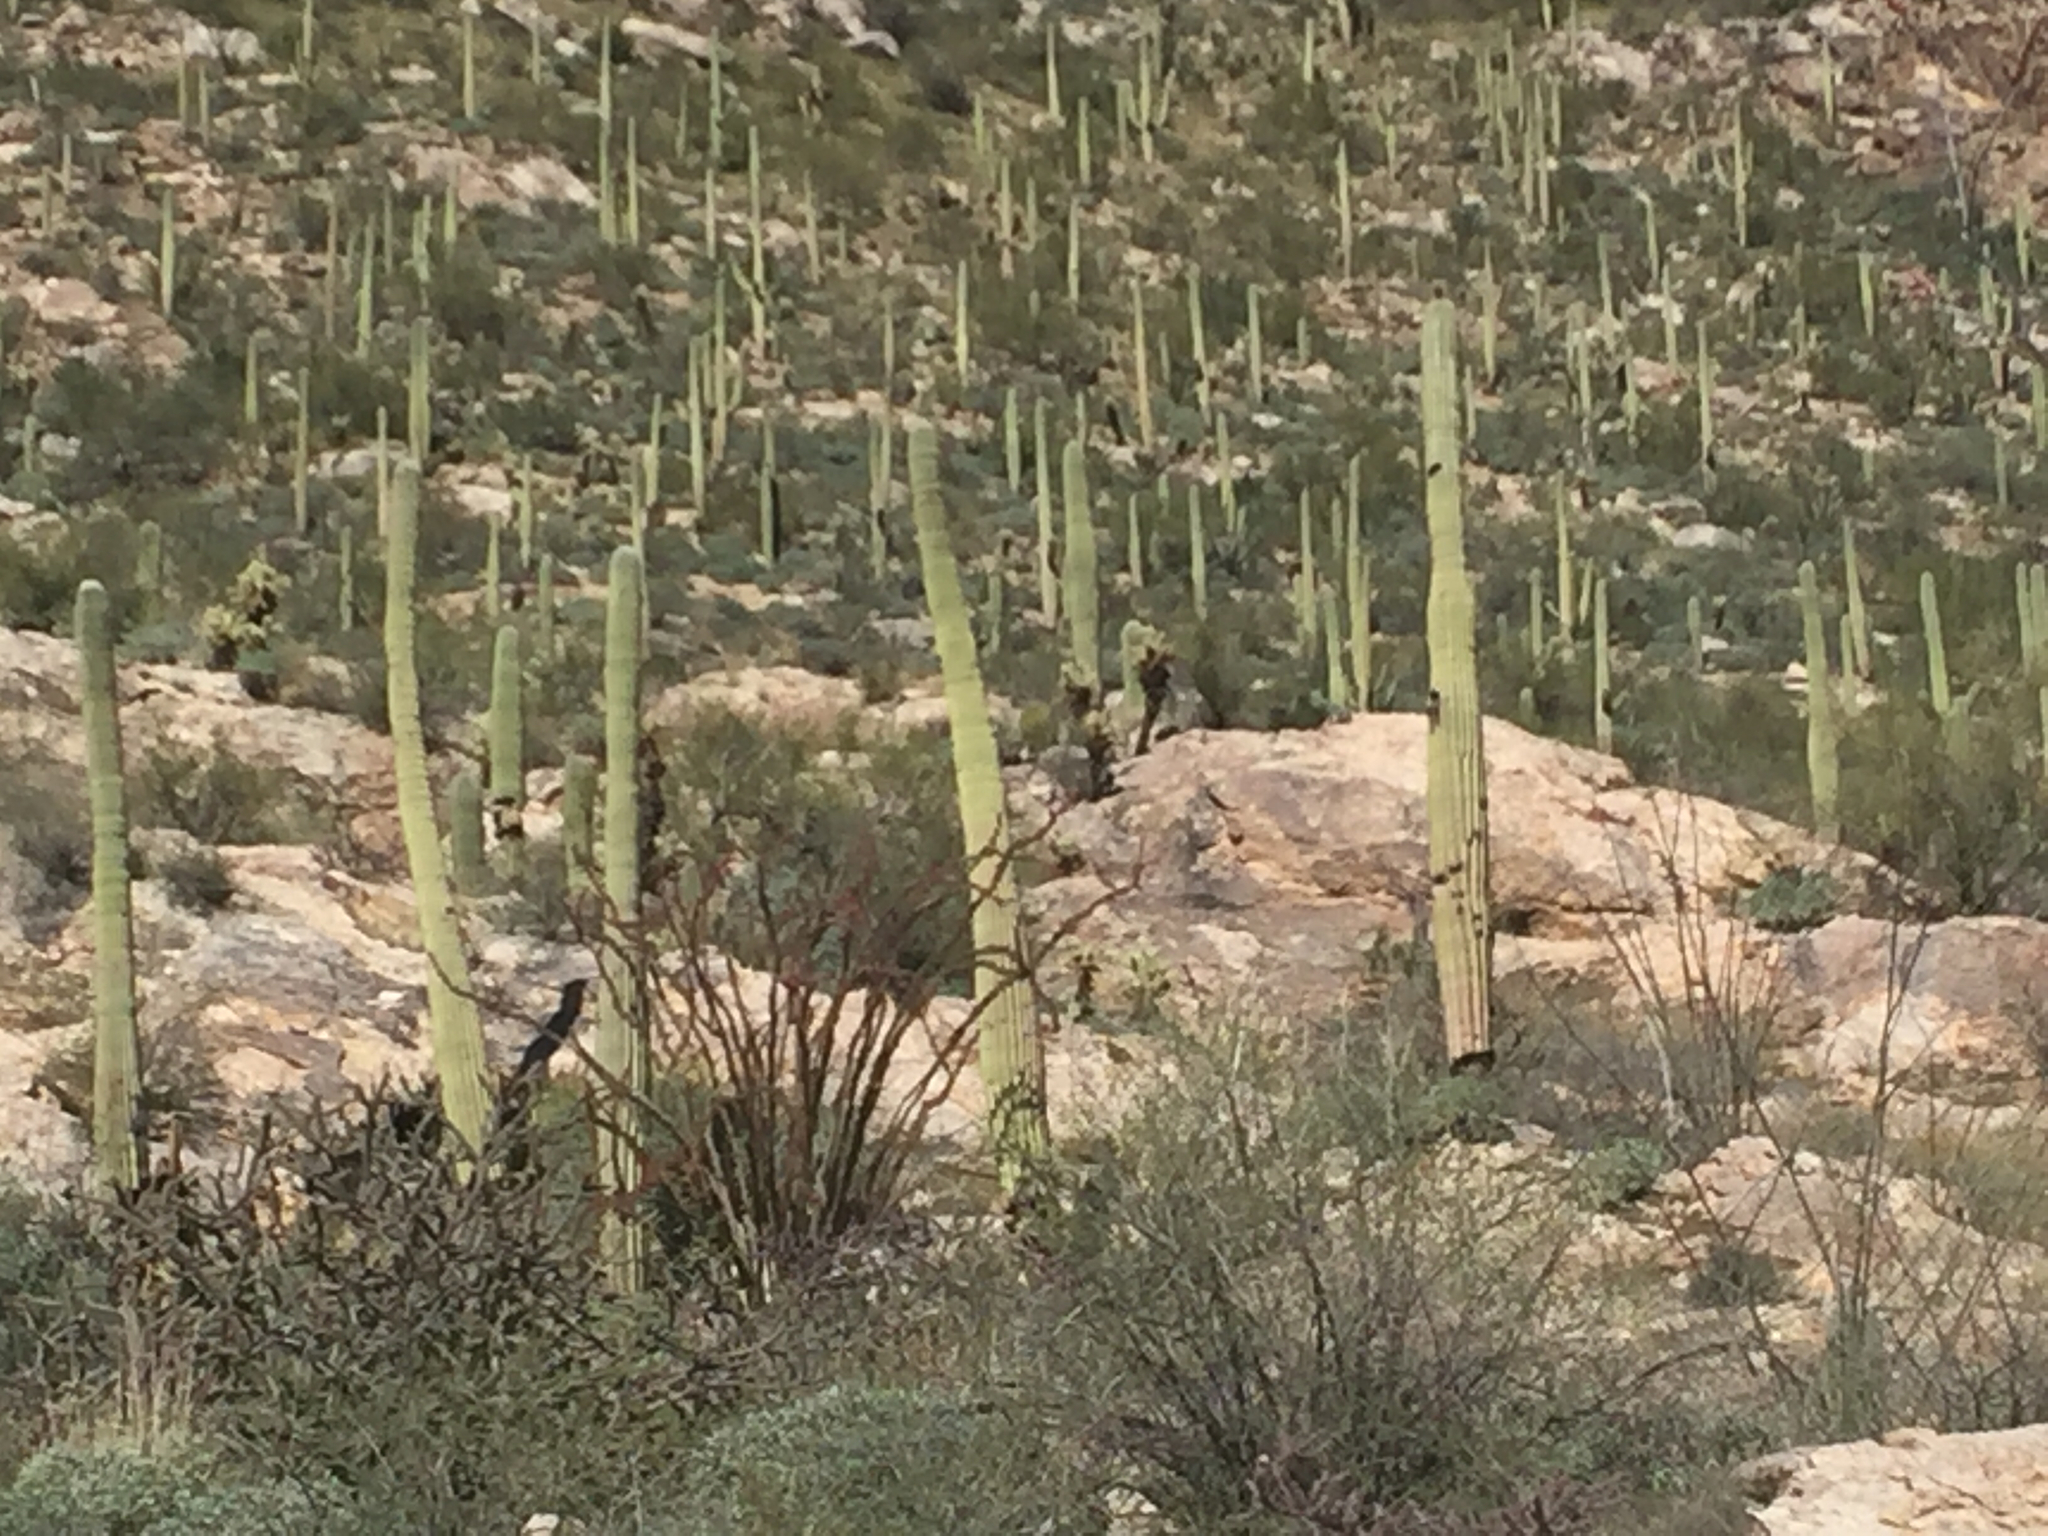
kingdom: Plantae
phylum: Tracheophyta
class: Magnoliopsida
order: Caryophyllales
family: Cactaceae
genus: Carnegiea
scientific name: Carnegiea gigantea
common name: Saguaro
